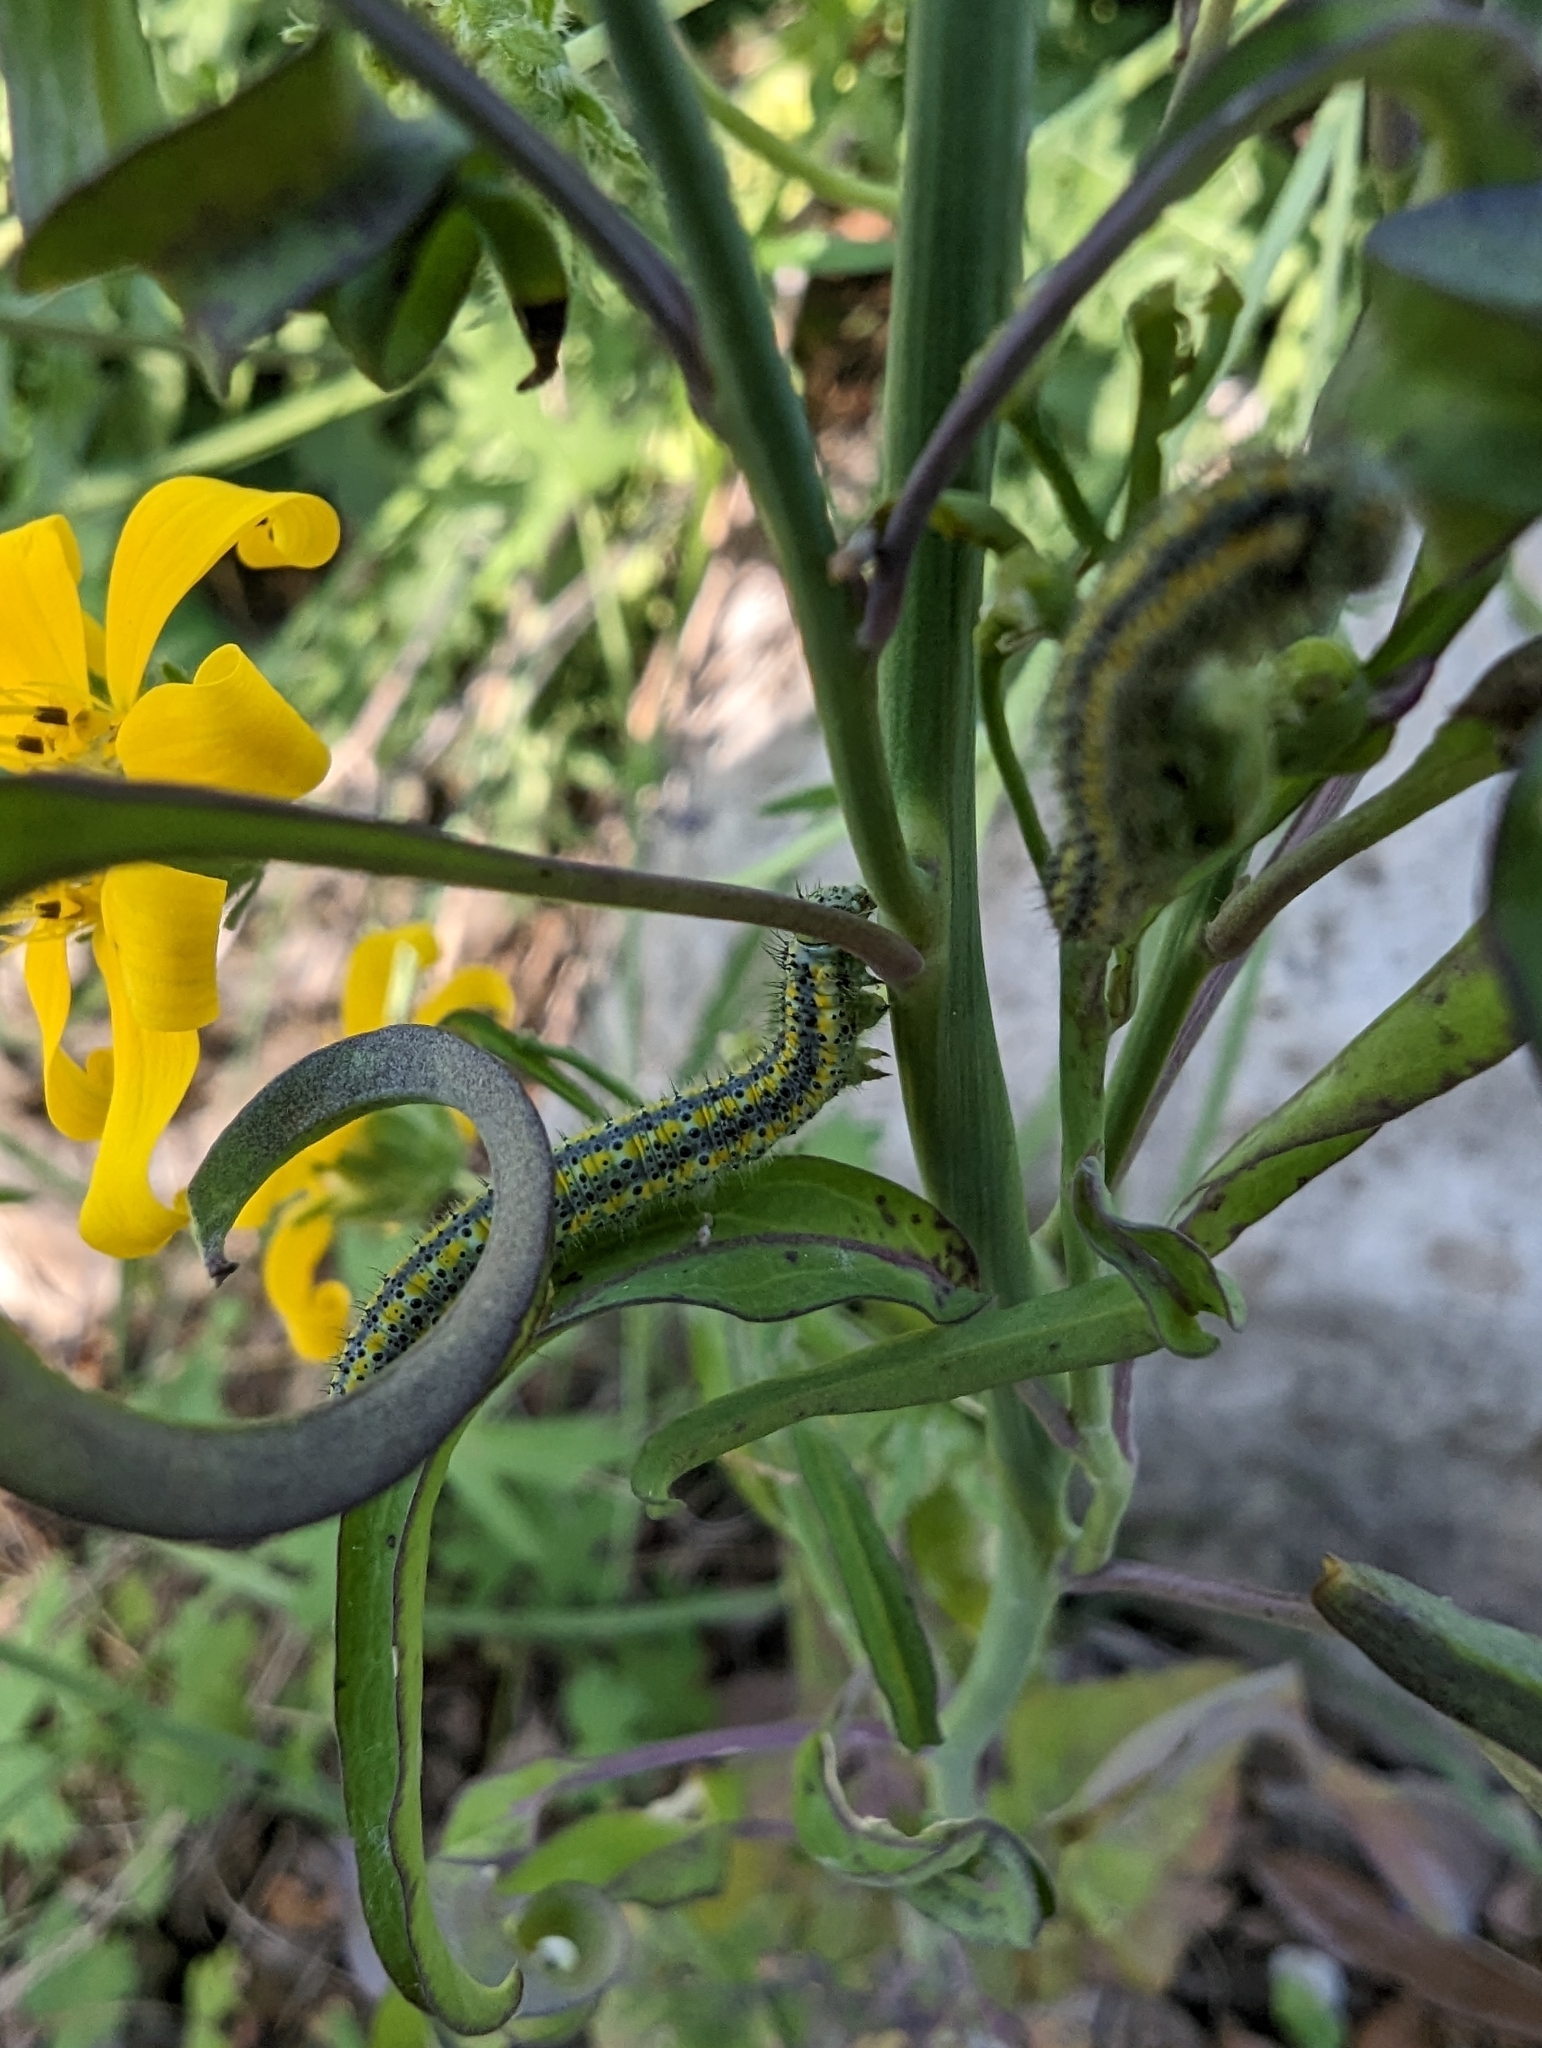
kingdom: Animalia
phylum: Arthropoda
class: Insecta
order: Lepidoptera
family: Pieridae
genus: Pontia
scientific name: Pontia protodice
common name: Checkered white
